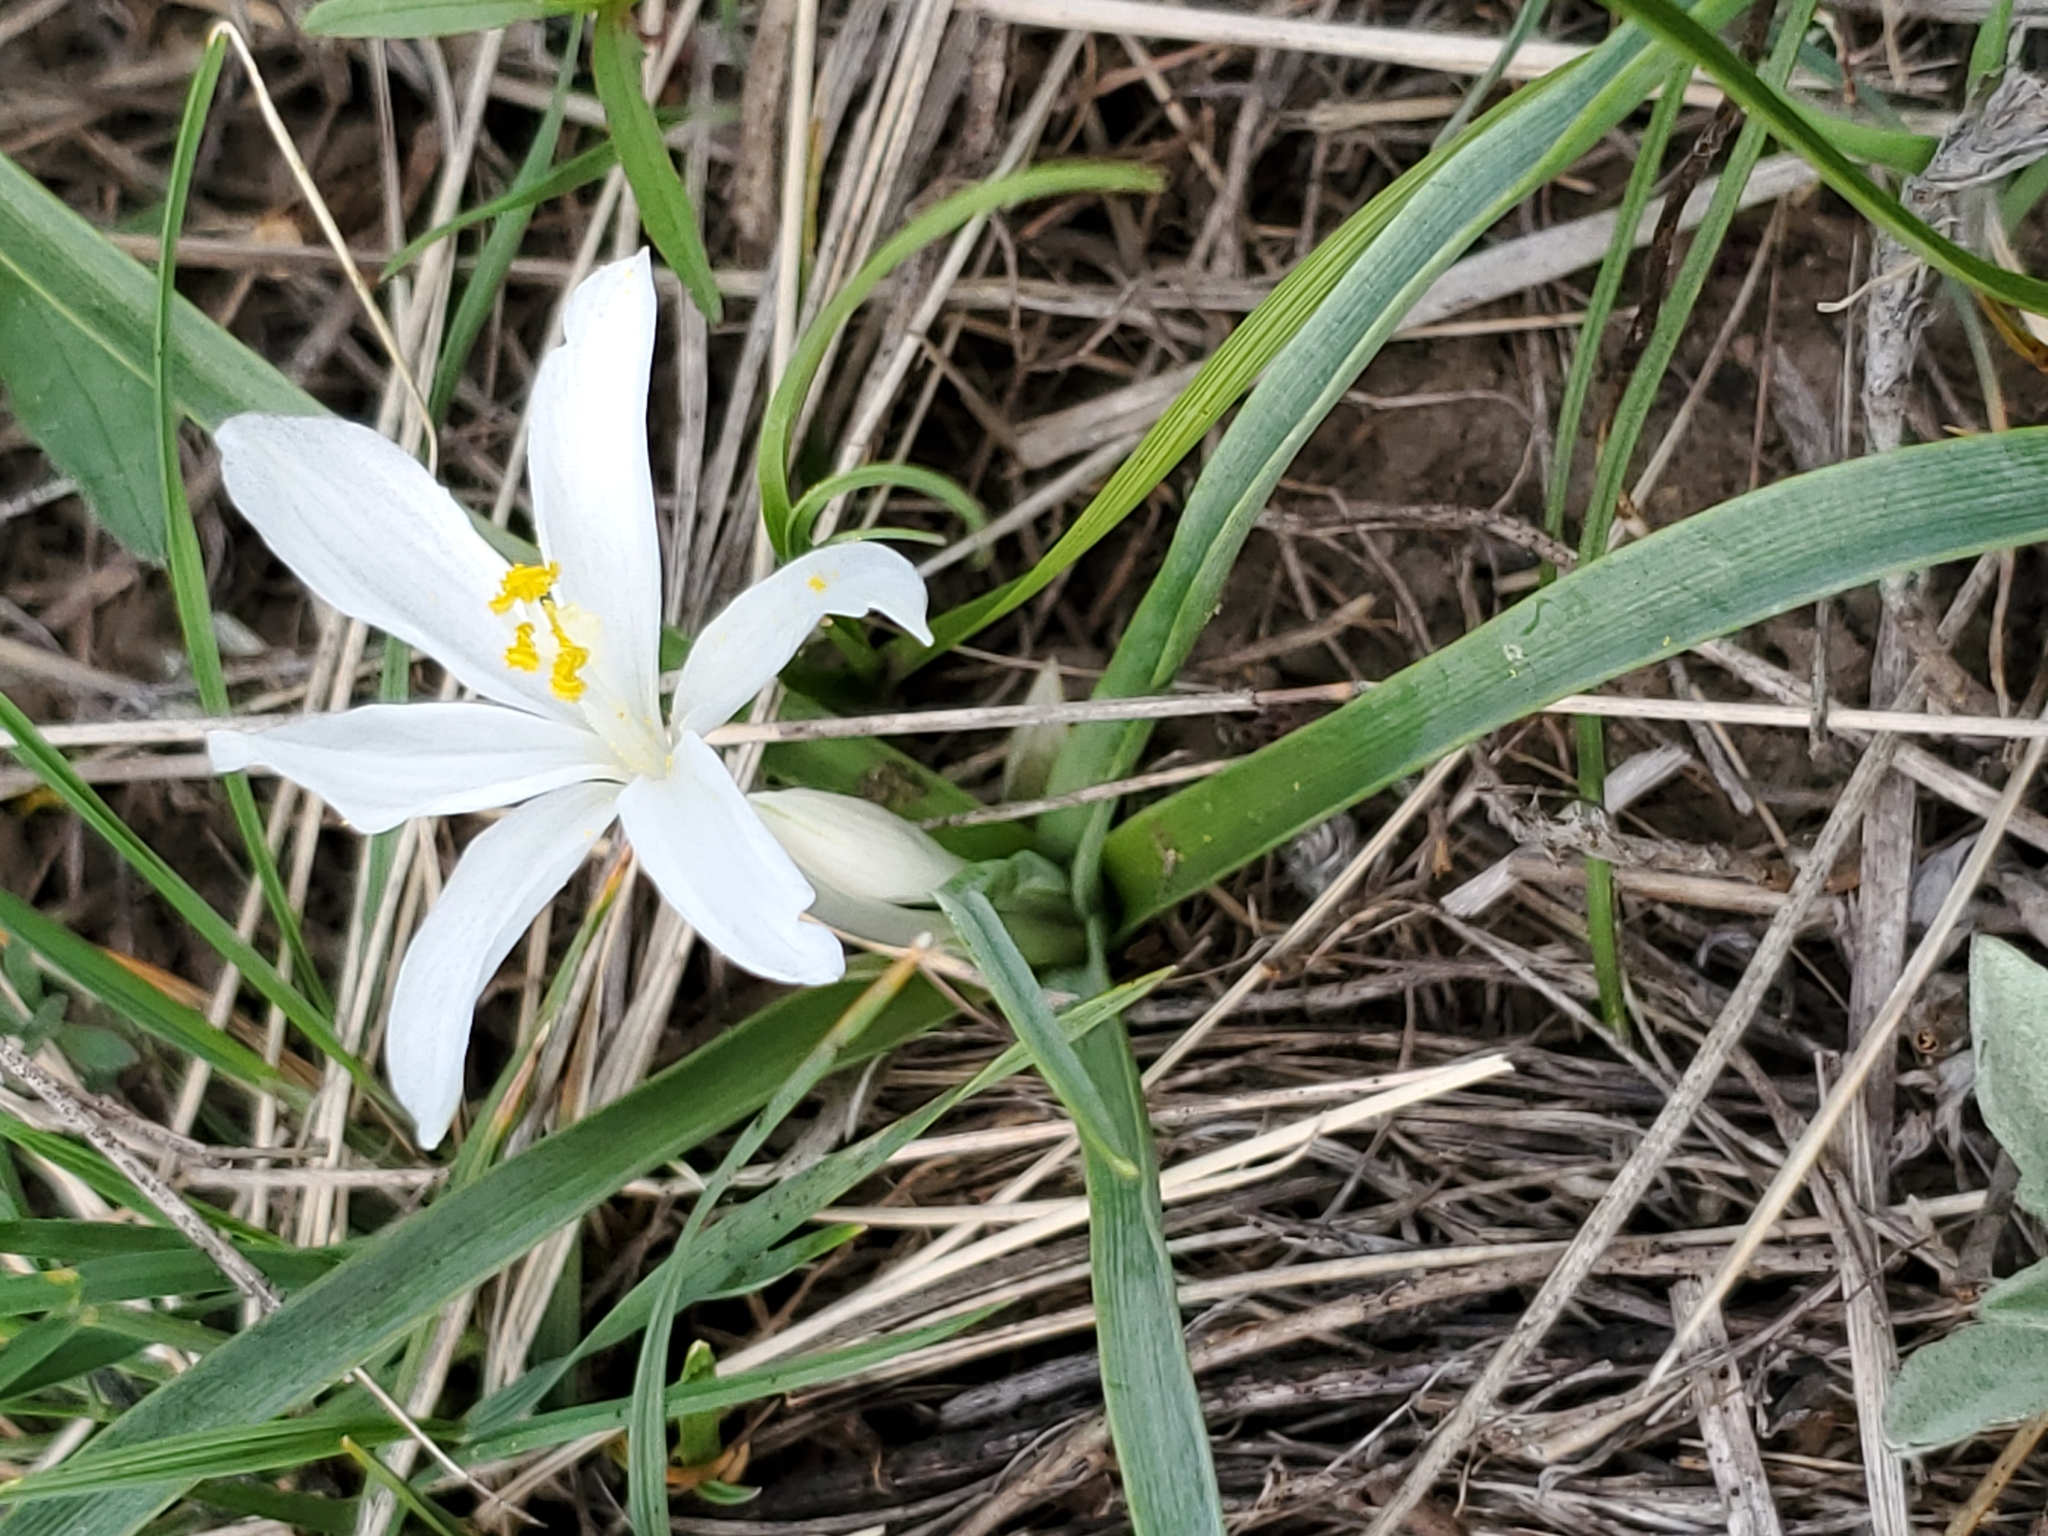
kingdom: Plantae
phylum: Tracheophyta
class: Liliopsida
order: Asparagales
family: Asparagaceae
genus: Leucocrinum
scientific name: Leucocrinum montanum
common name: Mountain-lily
